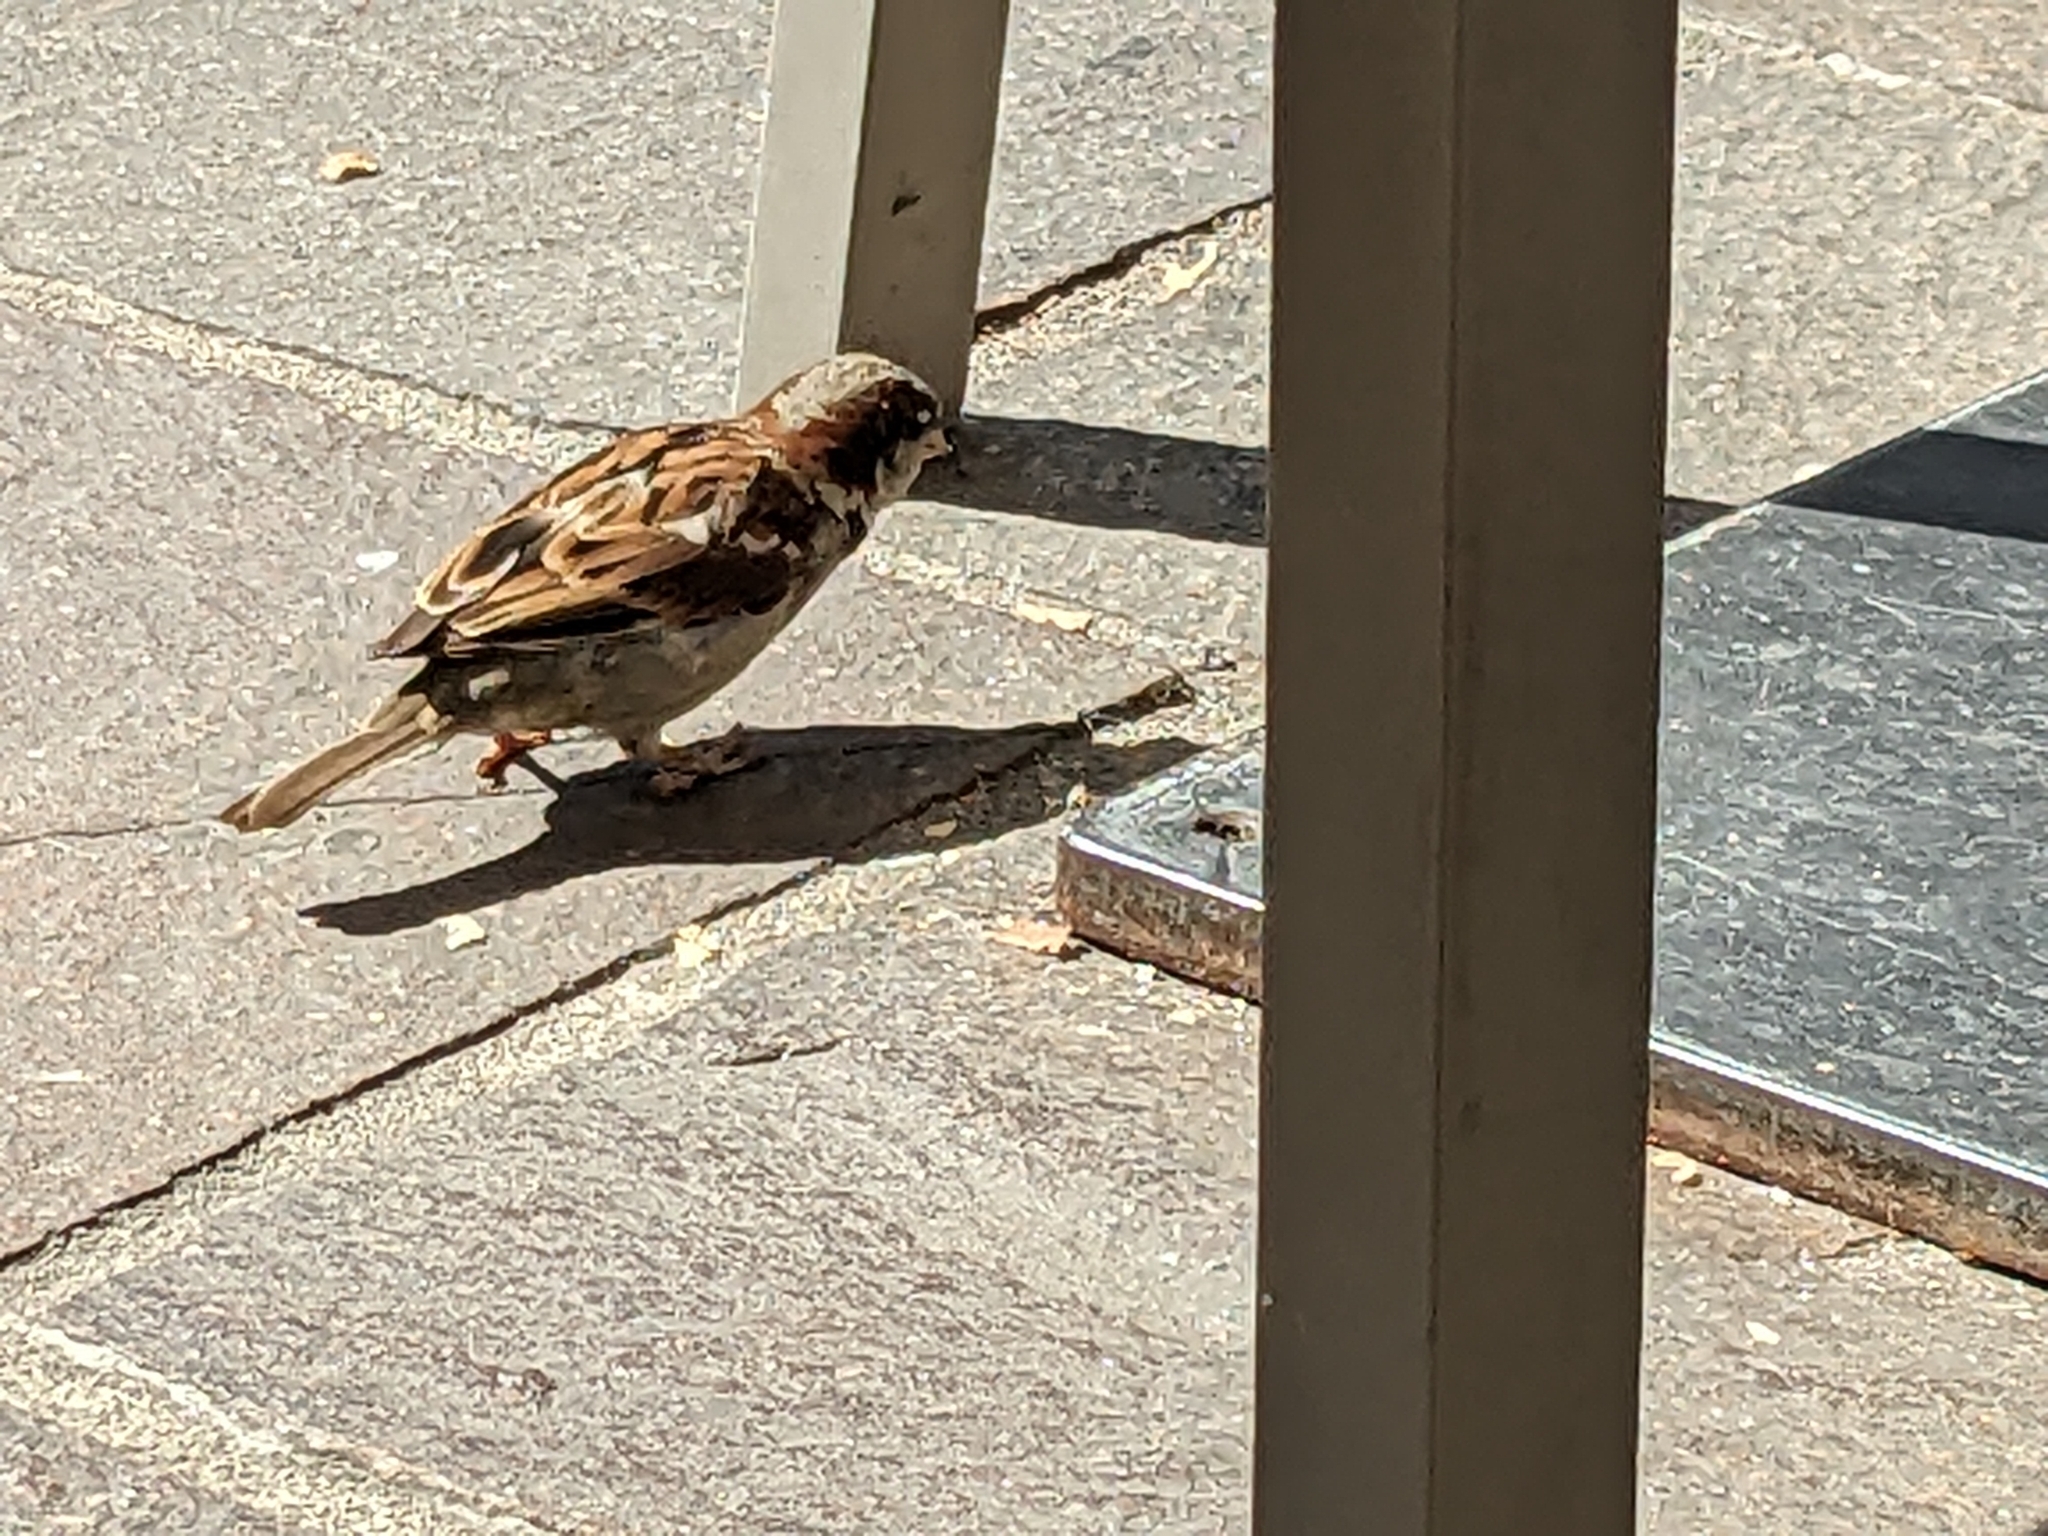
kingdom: Animalia
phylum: Chordata
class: Aves
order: Passeriformes
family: Passeridae
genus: Passer
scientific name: Passer domesticus
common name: House sparrow
